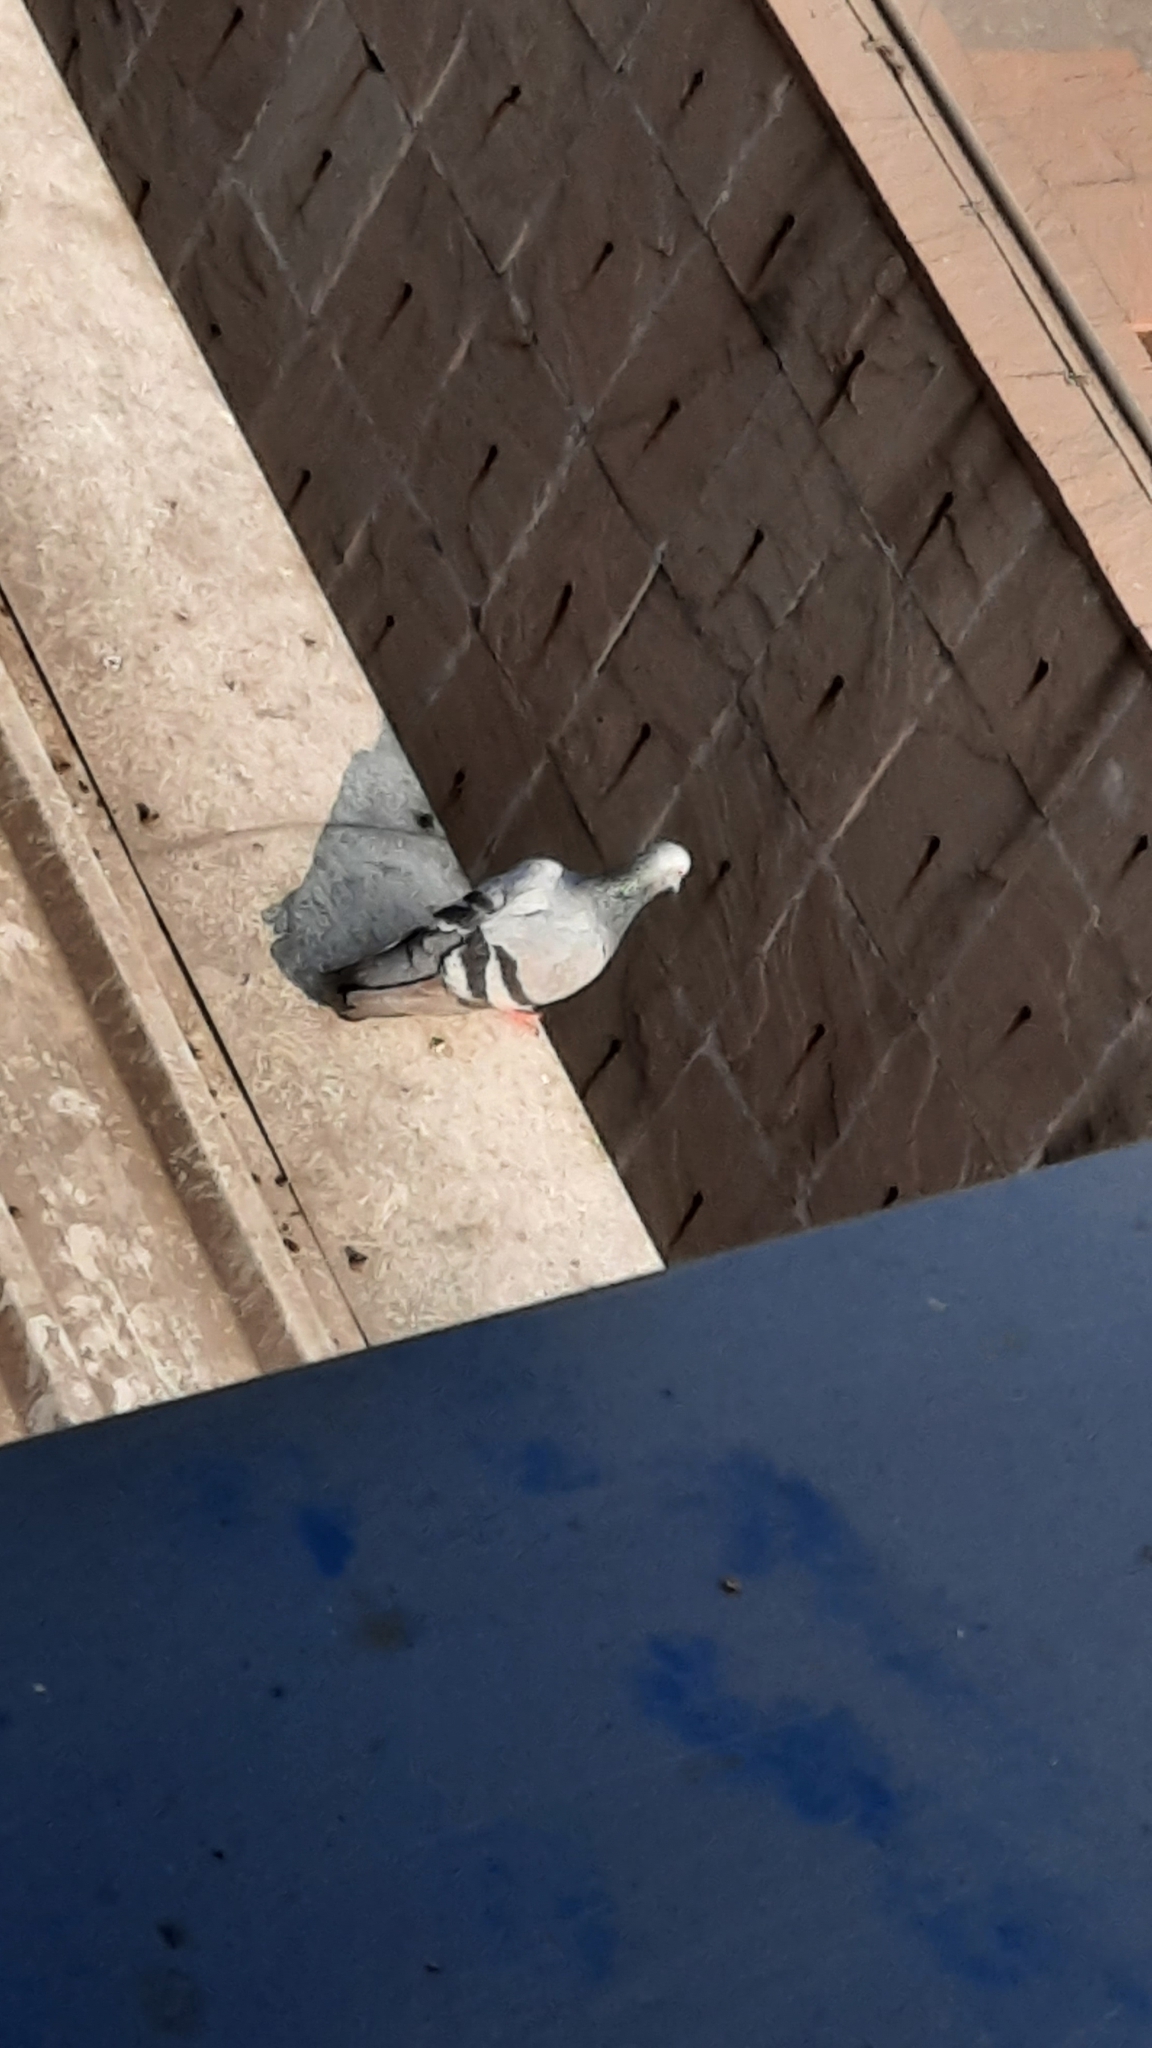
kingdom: Animalia
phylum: Chordata
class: Aves
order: Columbiformes
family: Columbidae
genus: Columba
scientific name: Columba livia
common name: Rock pigeon
